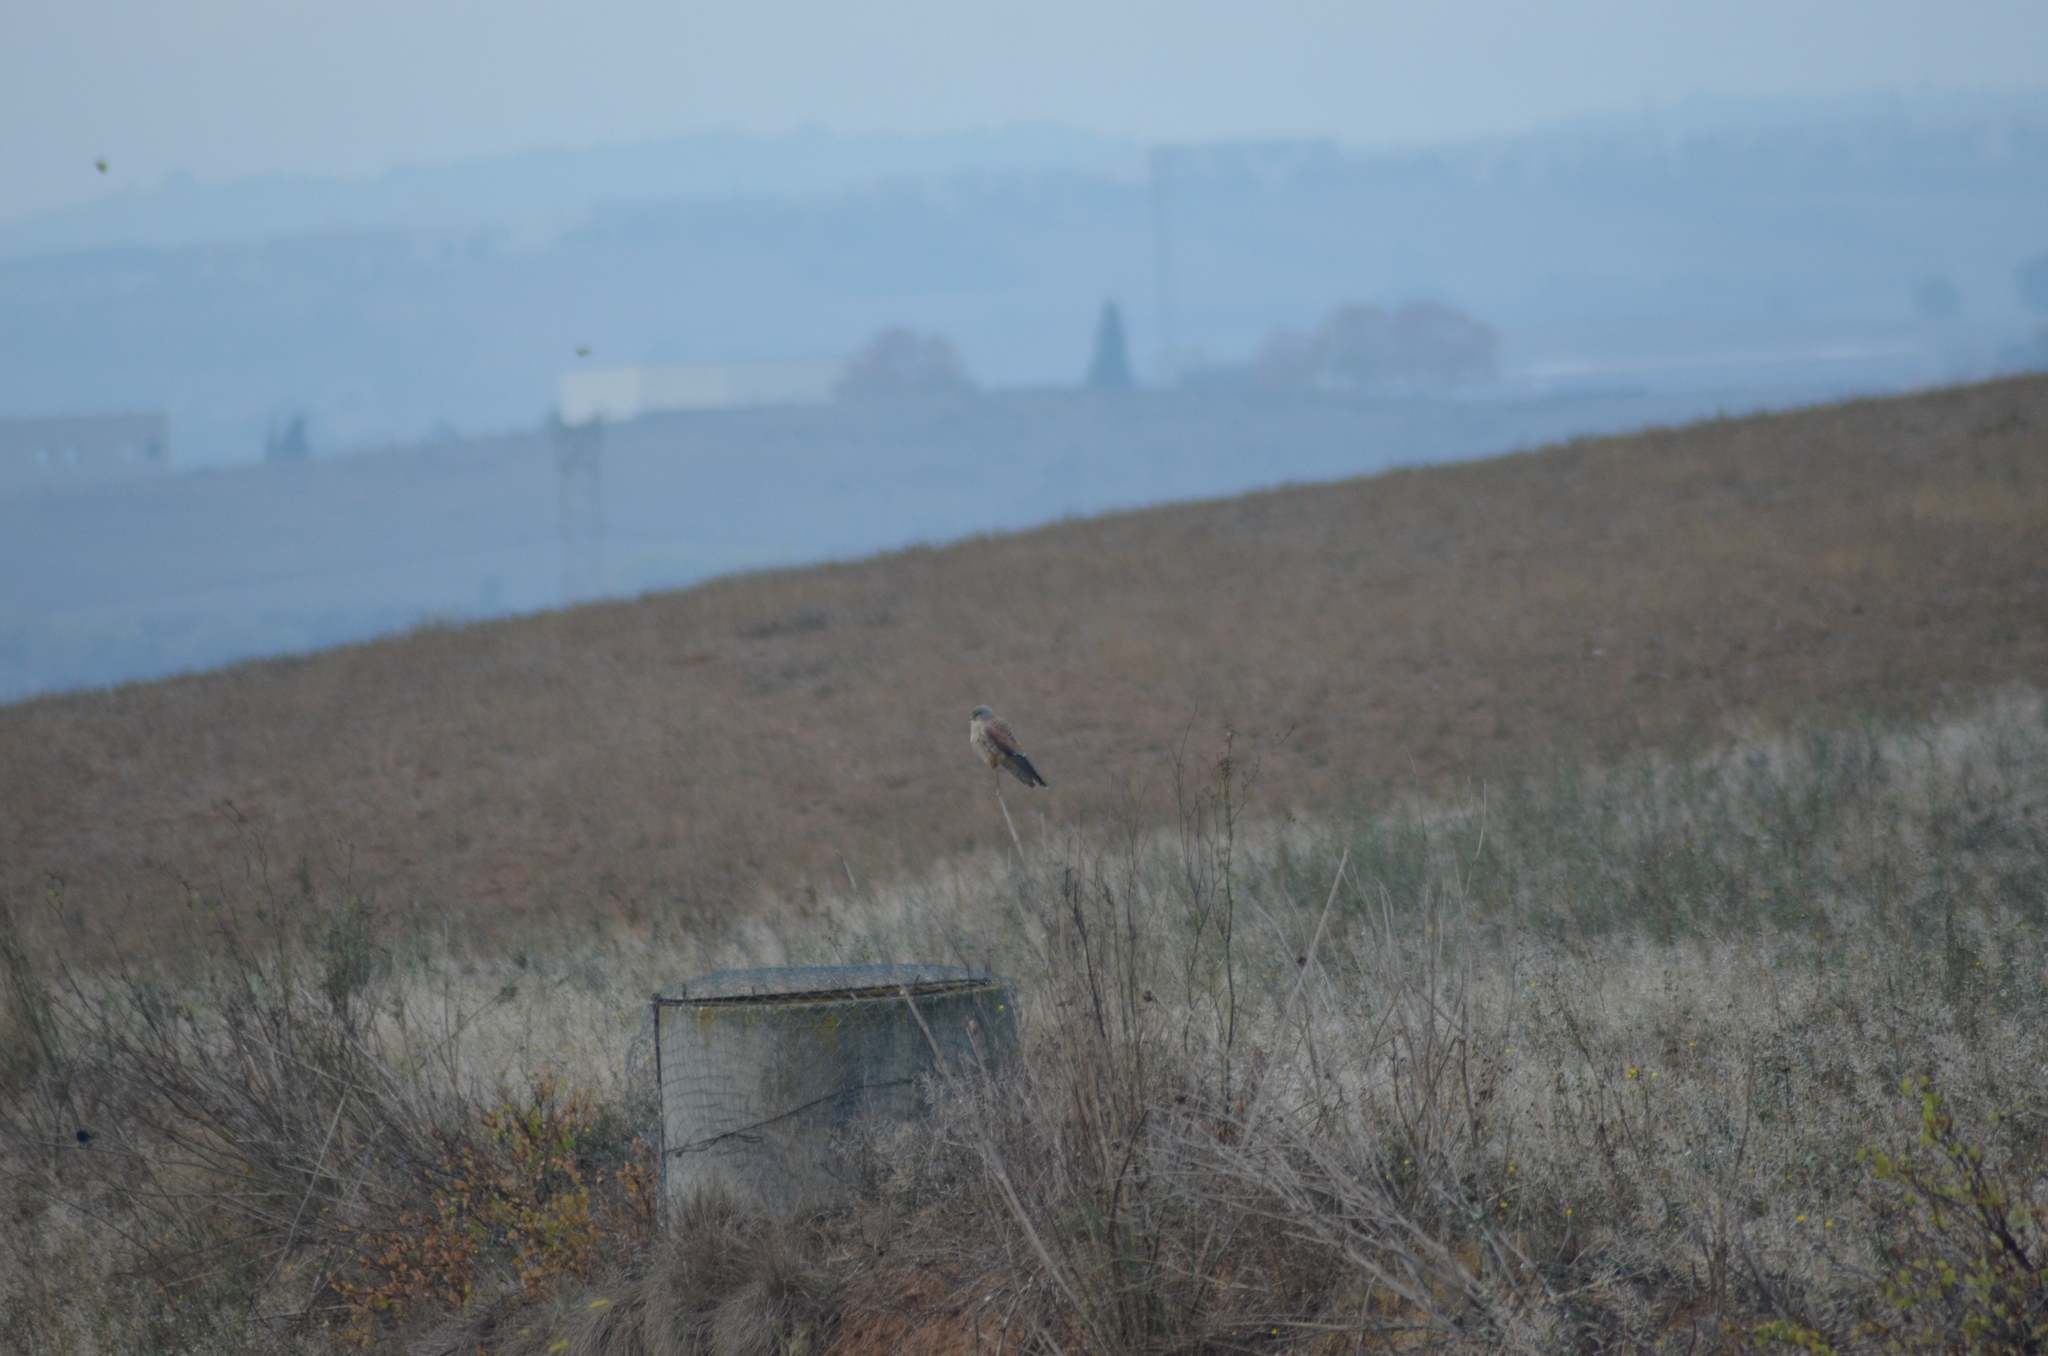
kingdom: Animalia
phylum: Chordata
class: Aves
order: Falconiformes
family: Falconidae
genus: Falco
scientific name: Falco tinnunculus
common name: Common kestrel
